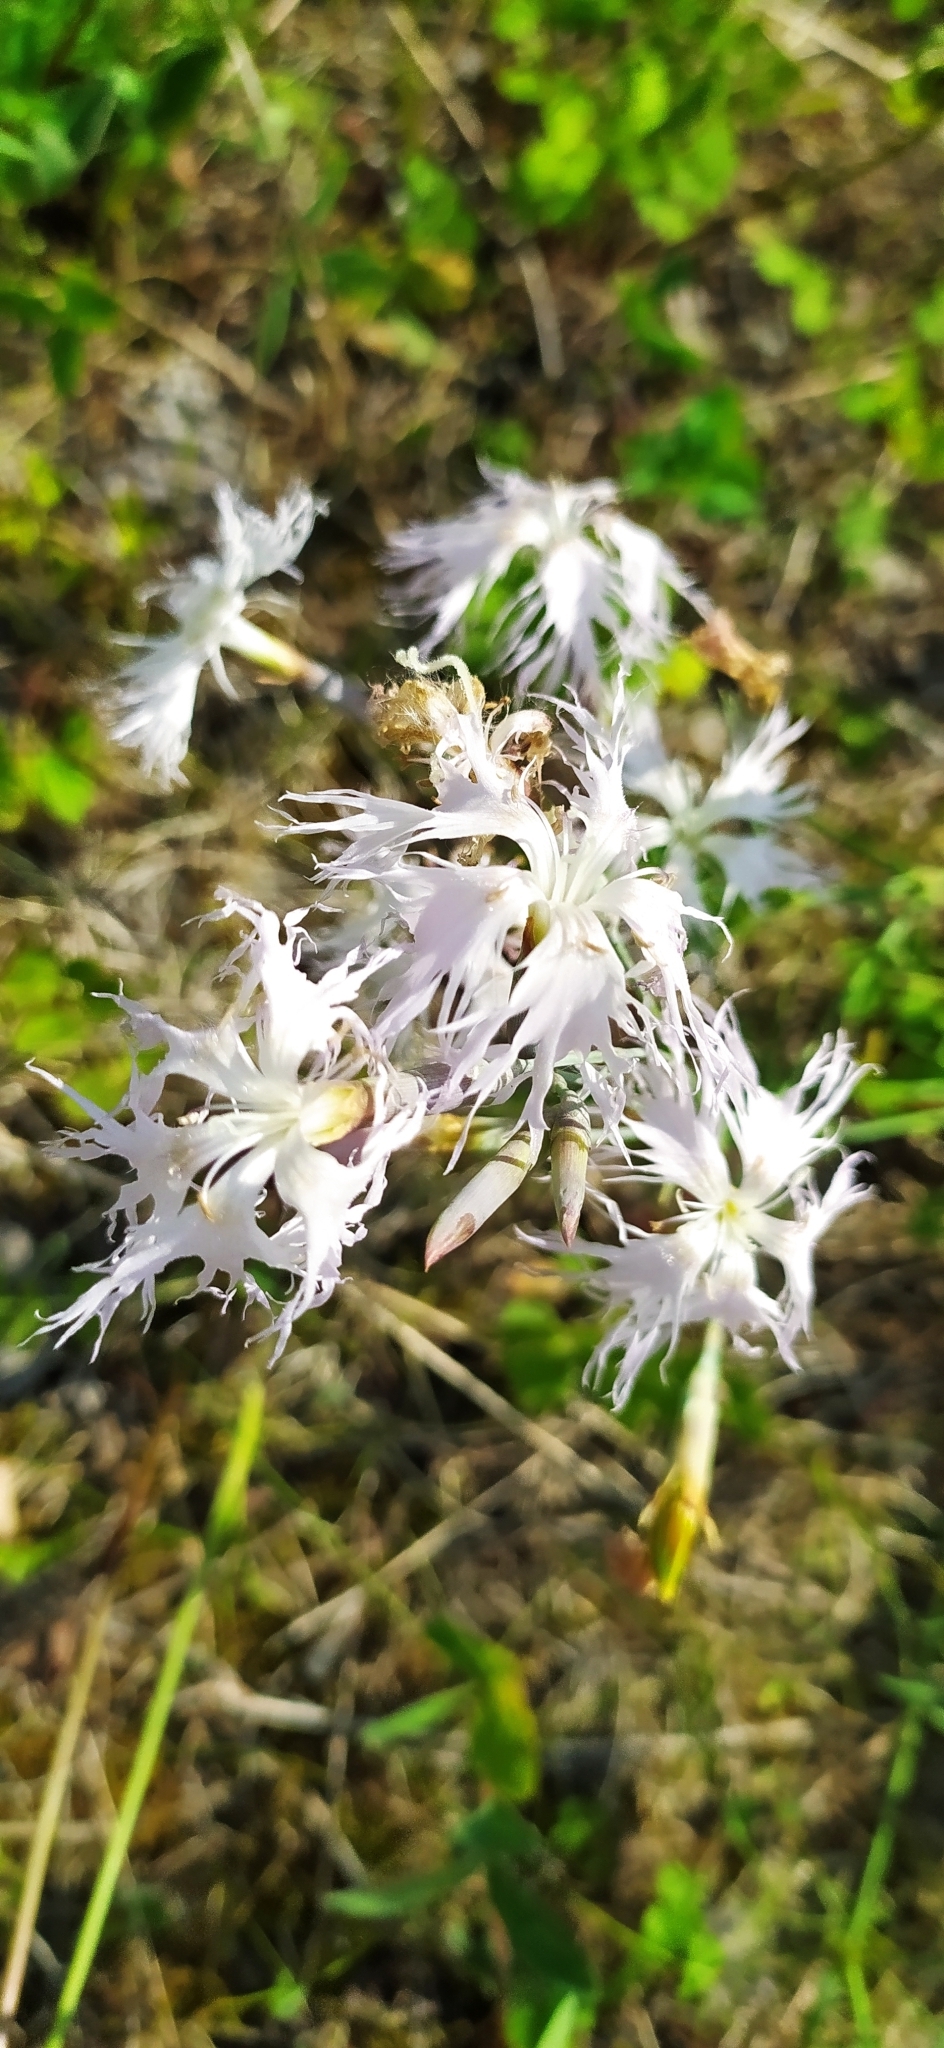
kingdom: Plantae
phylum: Tracheophyta
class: Magnoliopsida
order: Caryophyllales
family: Caryophyllaceae
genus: Dianthus
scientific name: Dianthus acicularis
